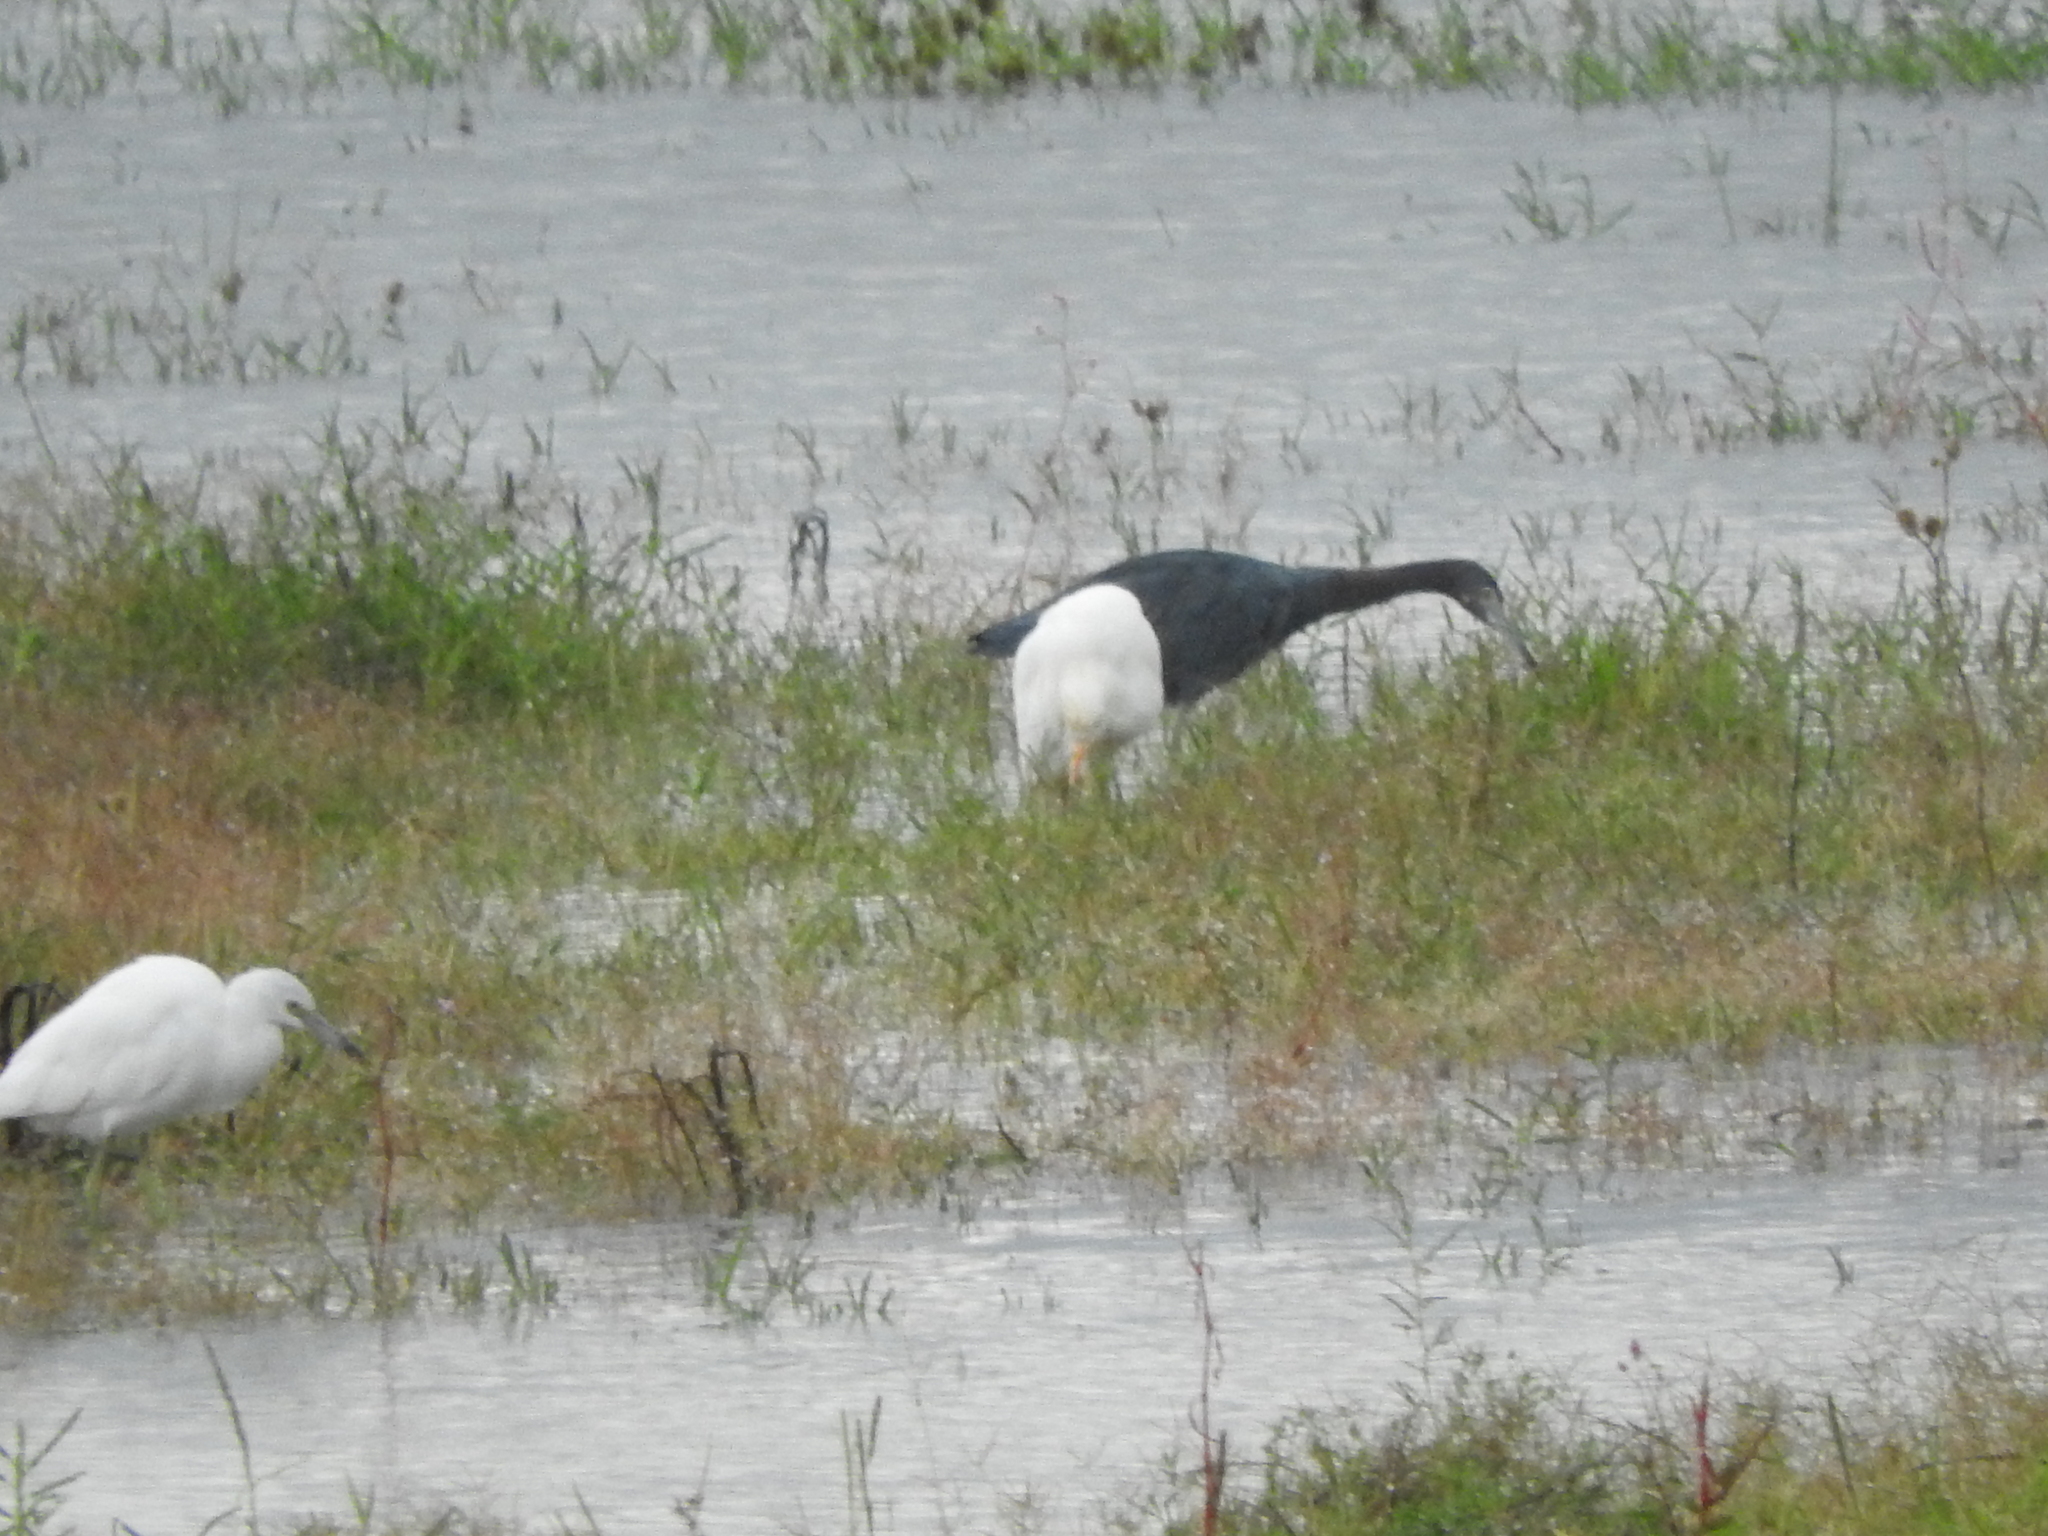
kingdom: Animalia
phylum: Chordata
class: Aves
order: Pelecaniformes
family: Ardeidae
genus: Egretta
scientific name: Egretta caerulea
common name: Little blue heron
